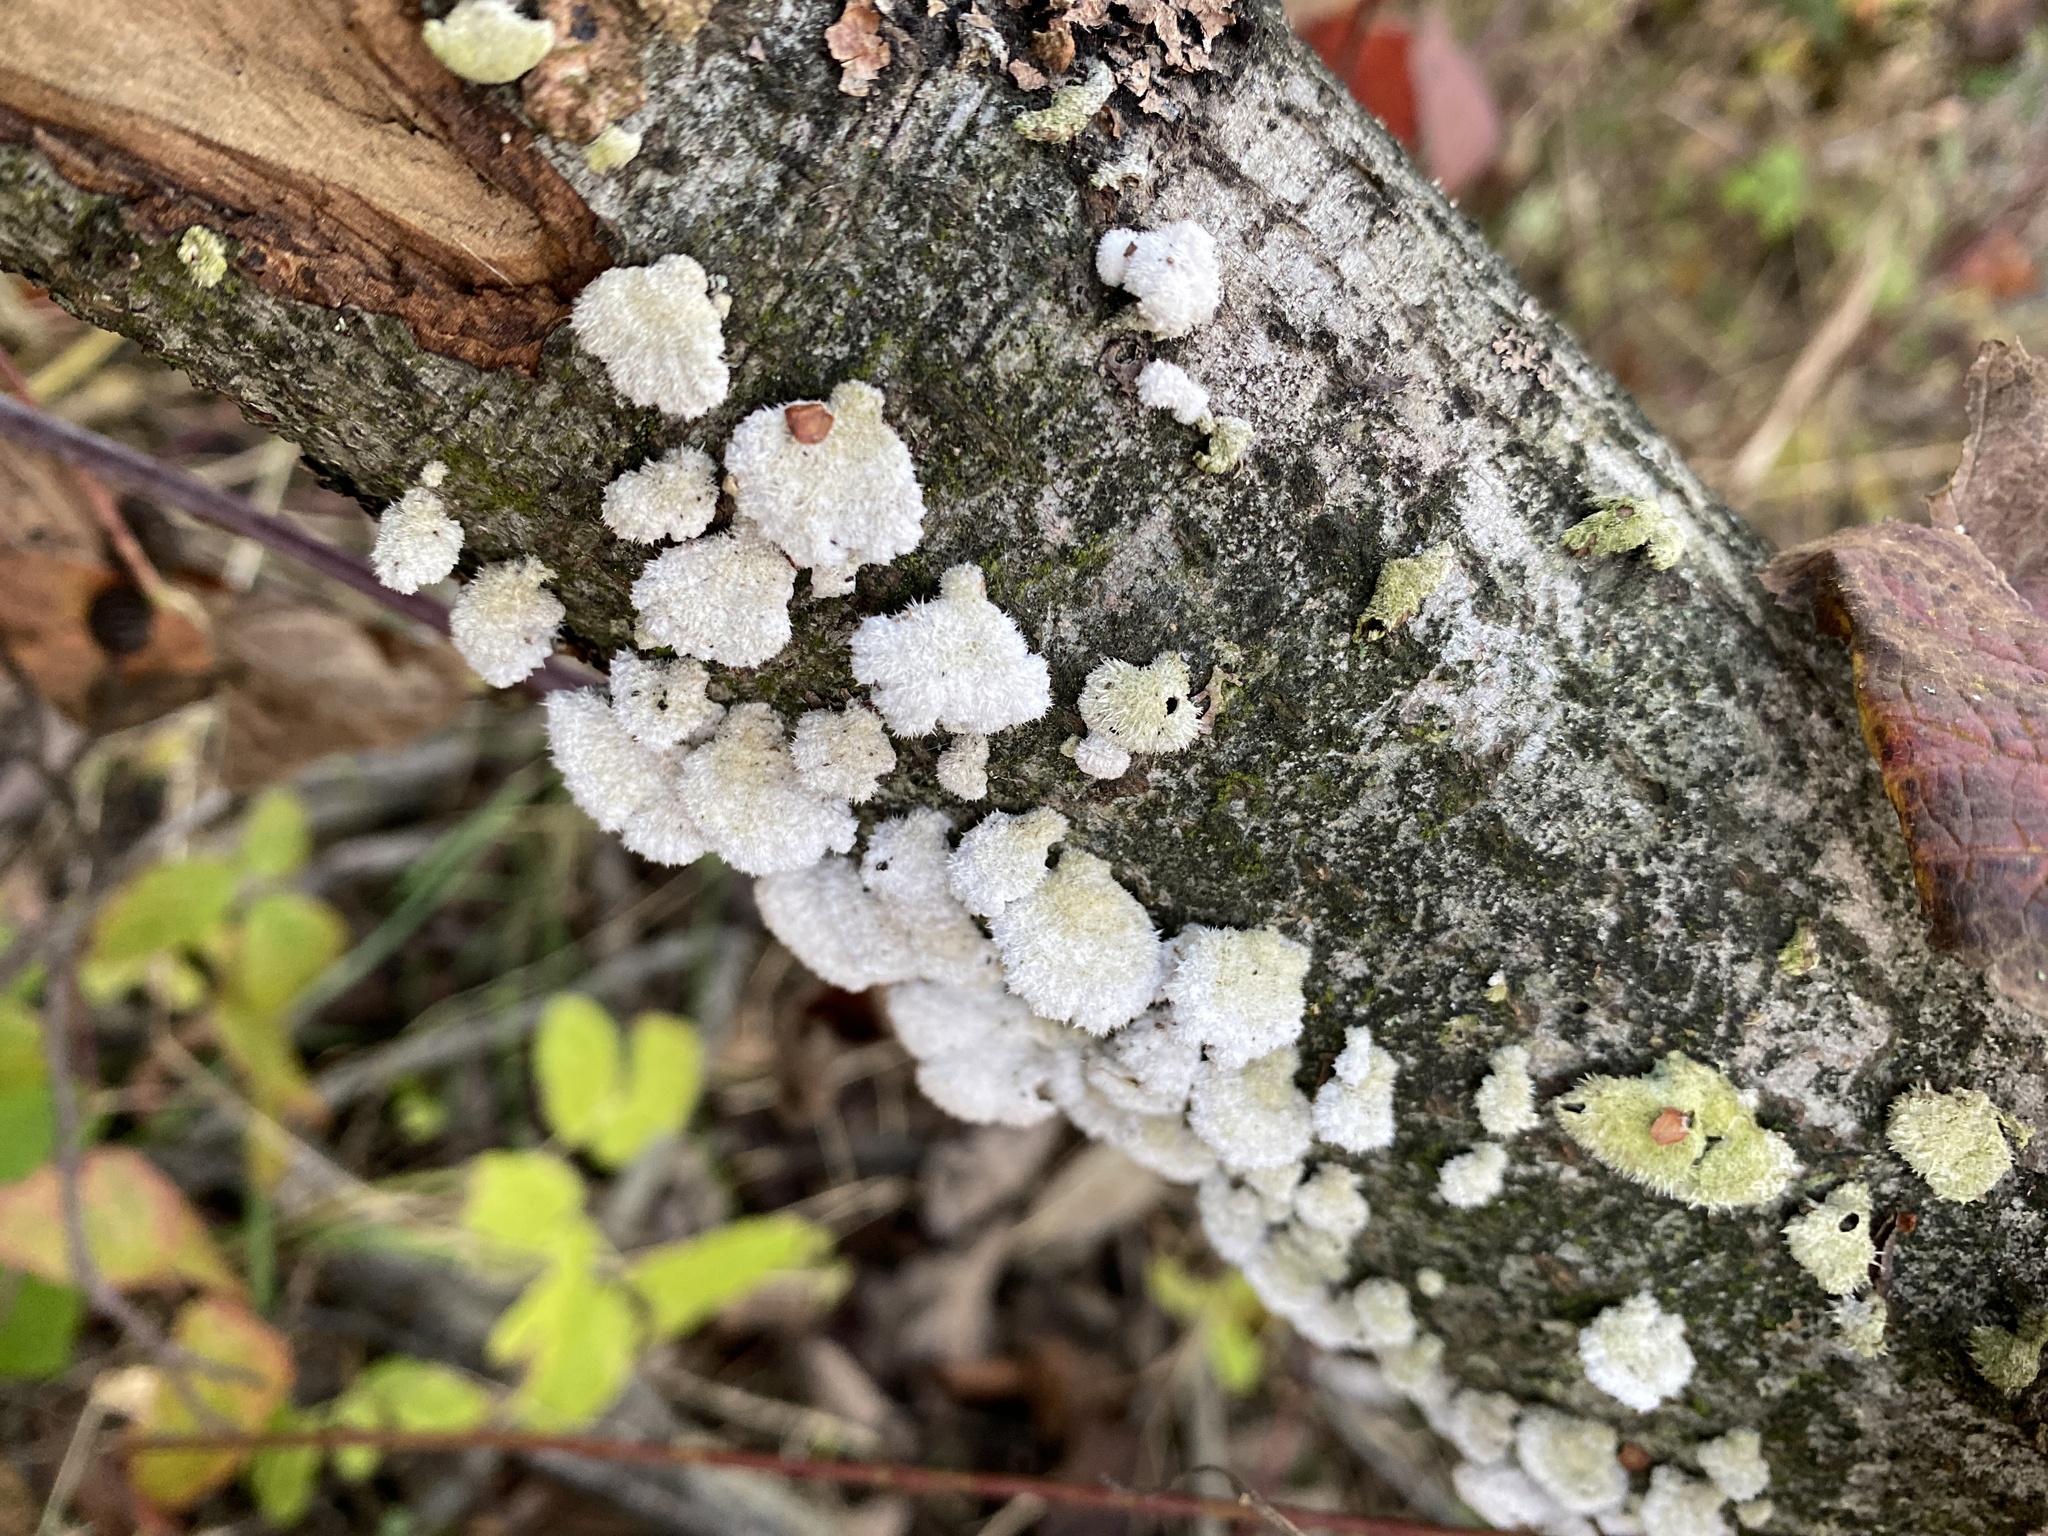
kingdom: Fungi
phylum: Basidiomycota
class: Agaricomycetes
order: Agaricales
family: Schizophyllaceae
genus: Schizophyllum
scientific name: Schizophyllum commune
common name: Common porecrust
